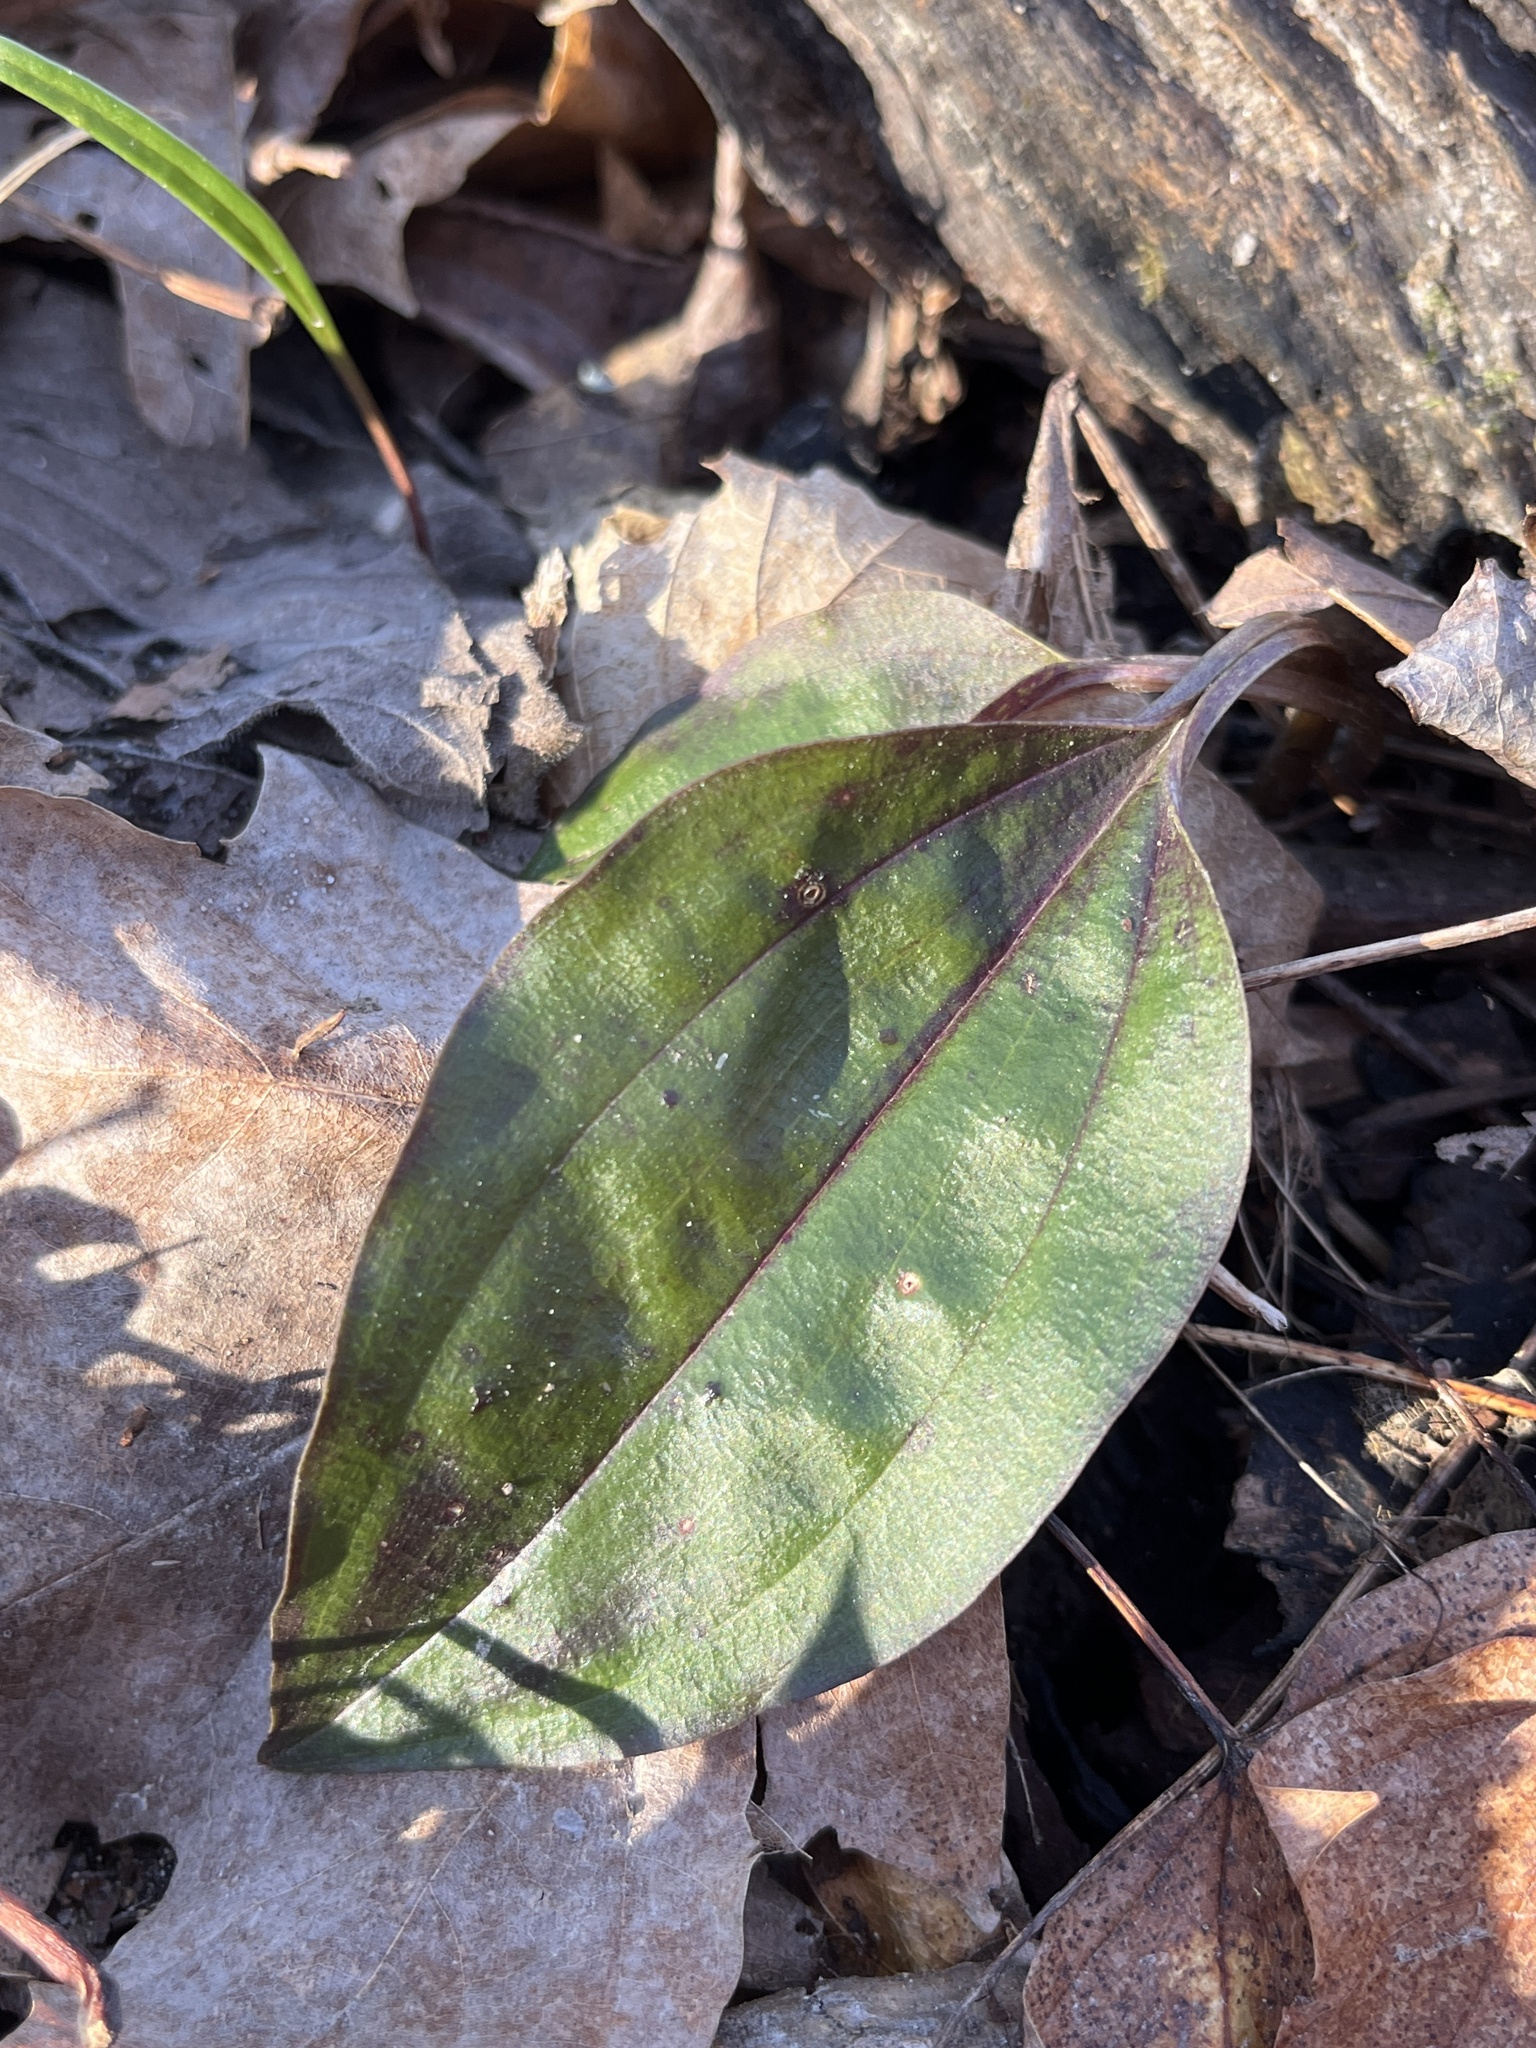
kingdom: Plantae
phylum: Tracheophyta
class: Liliopsida
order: Asparagales
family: Orchidaceae
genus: Tipularia
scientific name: Tipularia discolor
